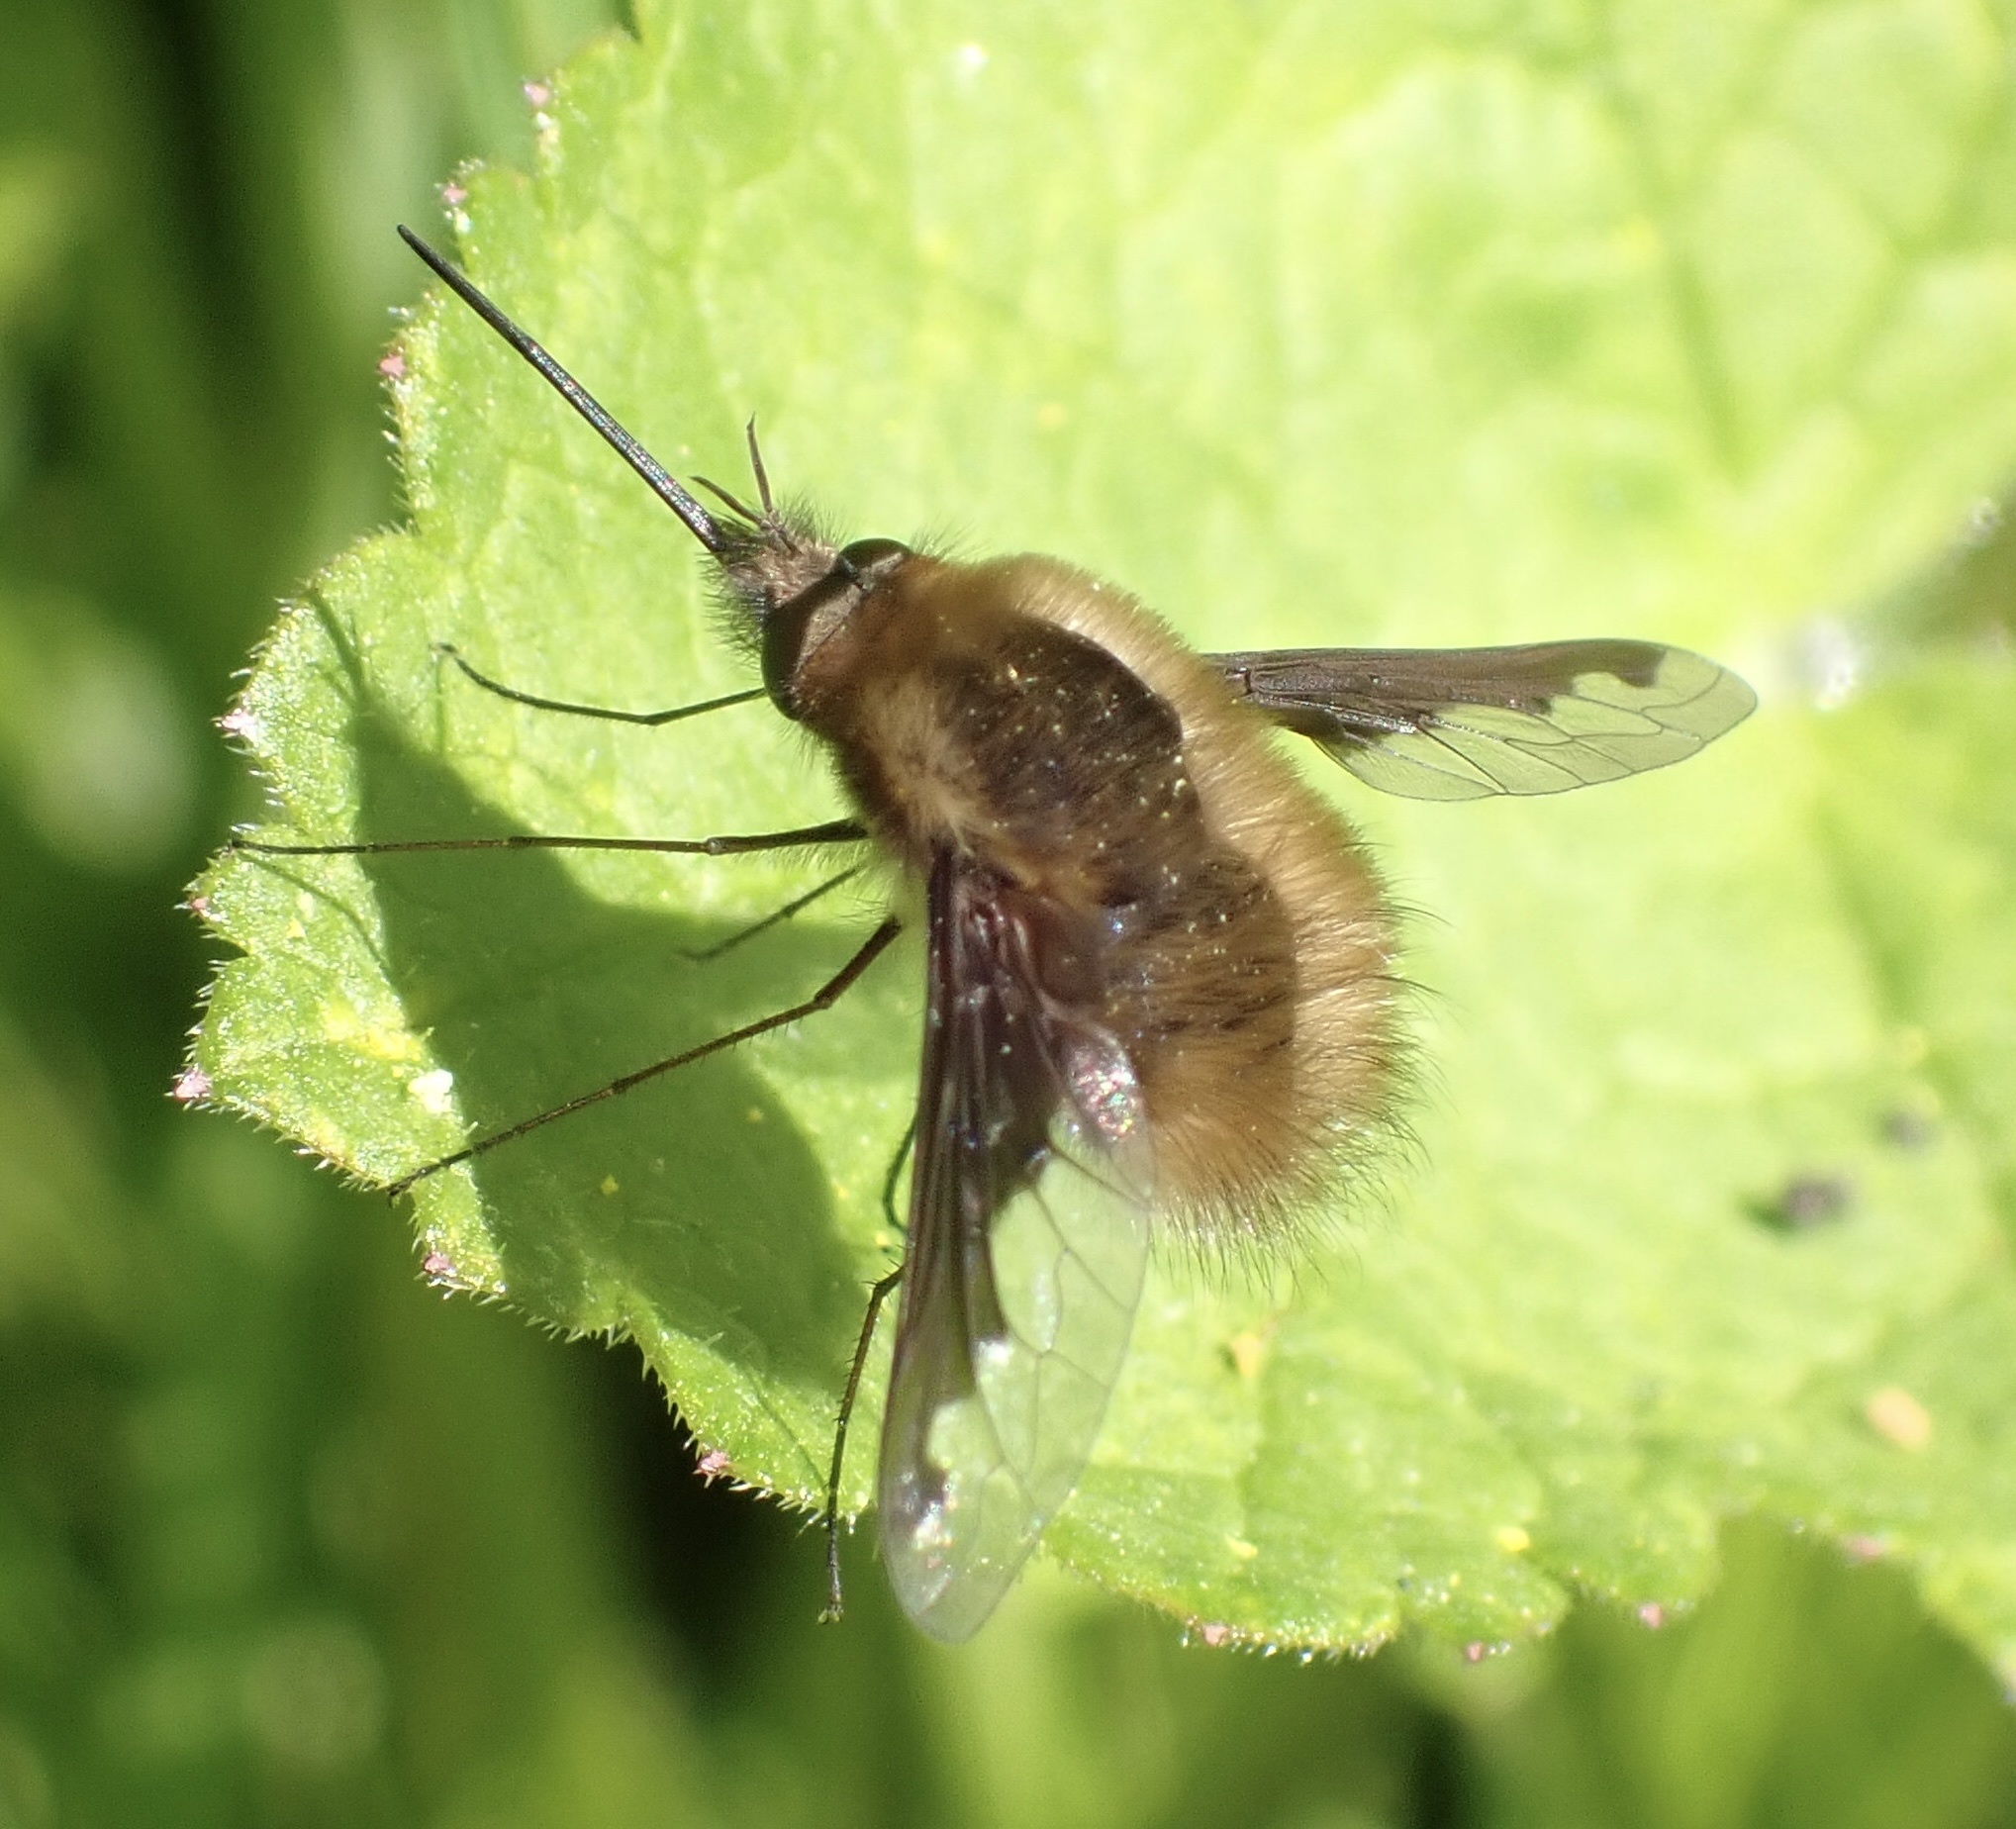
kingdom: Animalia
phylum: Arthropoda
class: Insecta
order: Diptera
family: Bombyliidae
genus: Bombylius
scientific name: Bombylius major
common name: Bee fly
